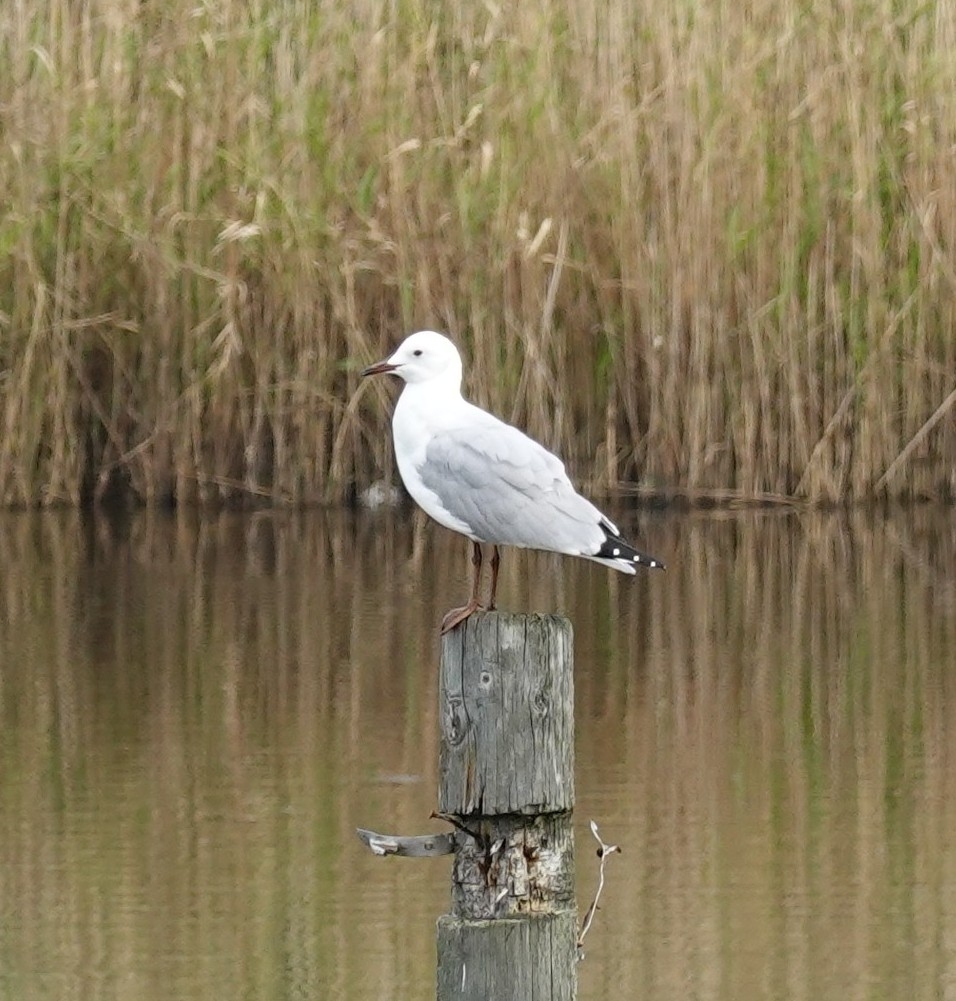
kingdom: Animalia
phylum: Chordata
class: Aves
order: Charadriiformes
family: Laridae
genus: Chroicocephalus
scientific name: Chroicocephalus hartlaubii
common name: Hartlaub's gull
